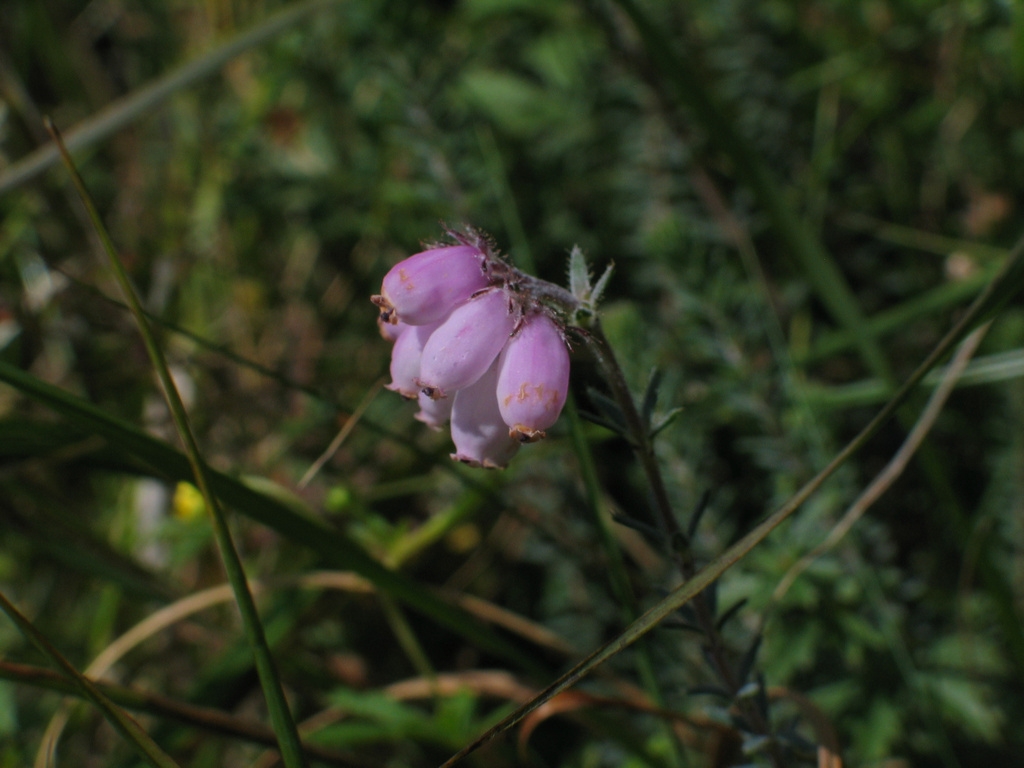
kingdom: Plantae
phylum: Tracheophyta
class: Magnoliopsida
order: Ericales
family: Ericaceae
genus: Erica
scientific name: Erica tetralix
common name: Cross-leaved heath
